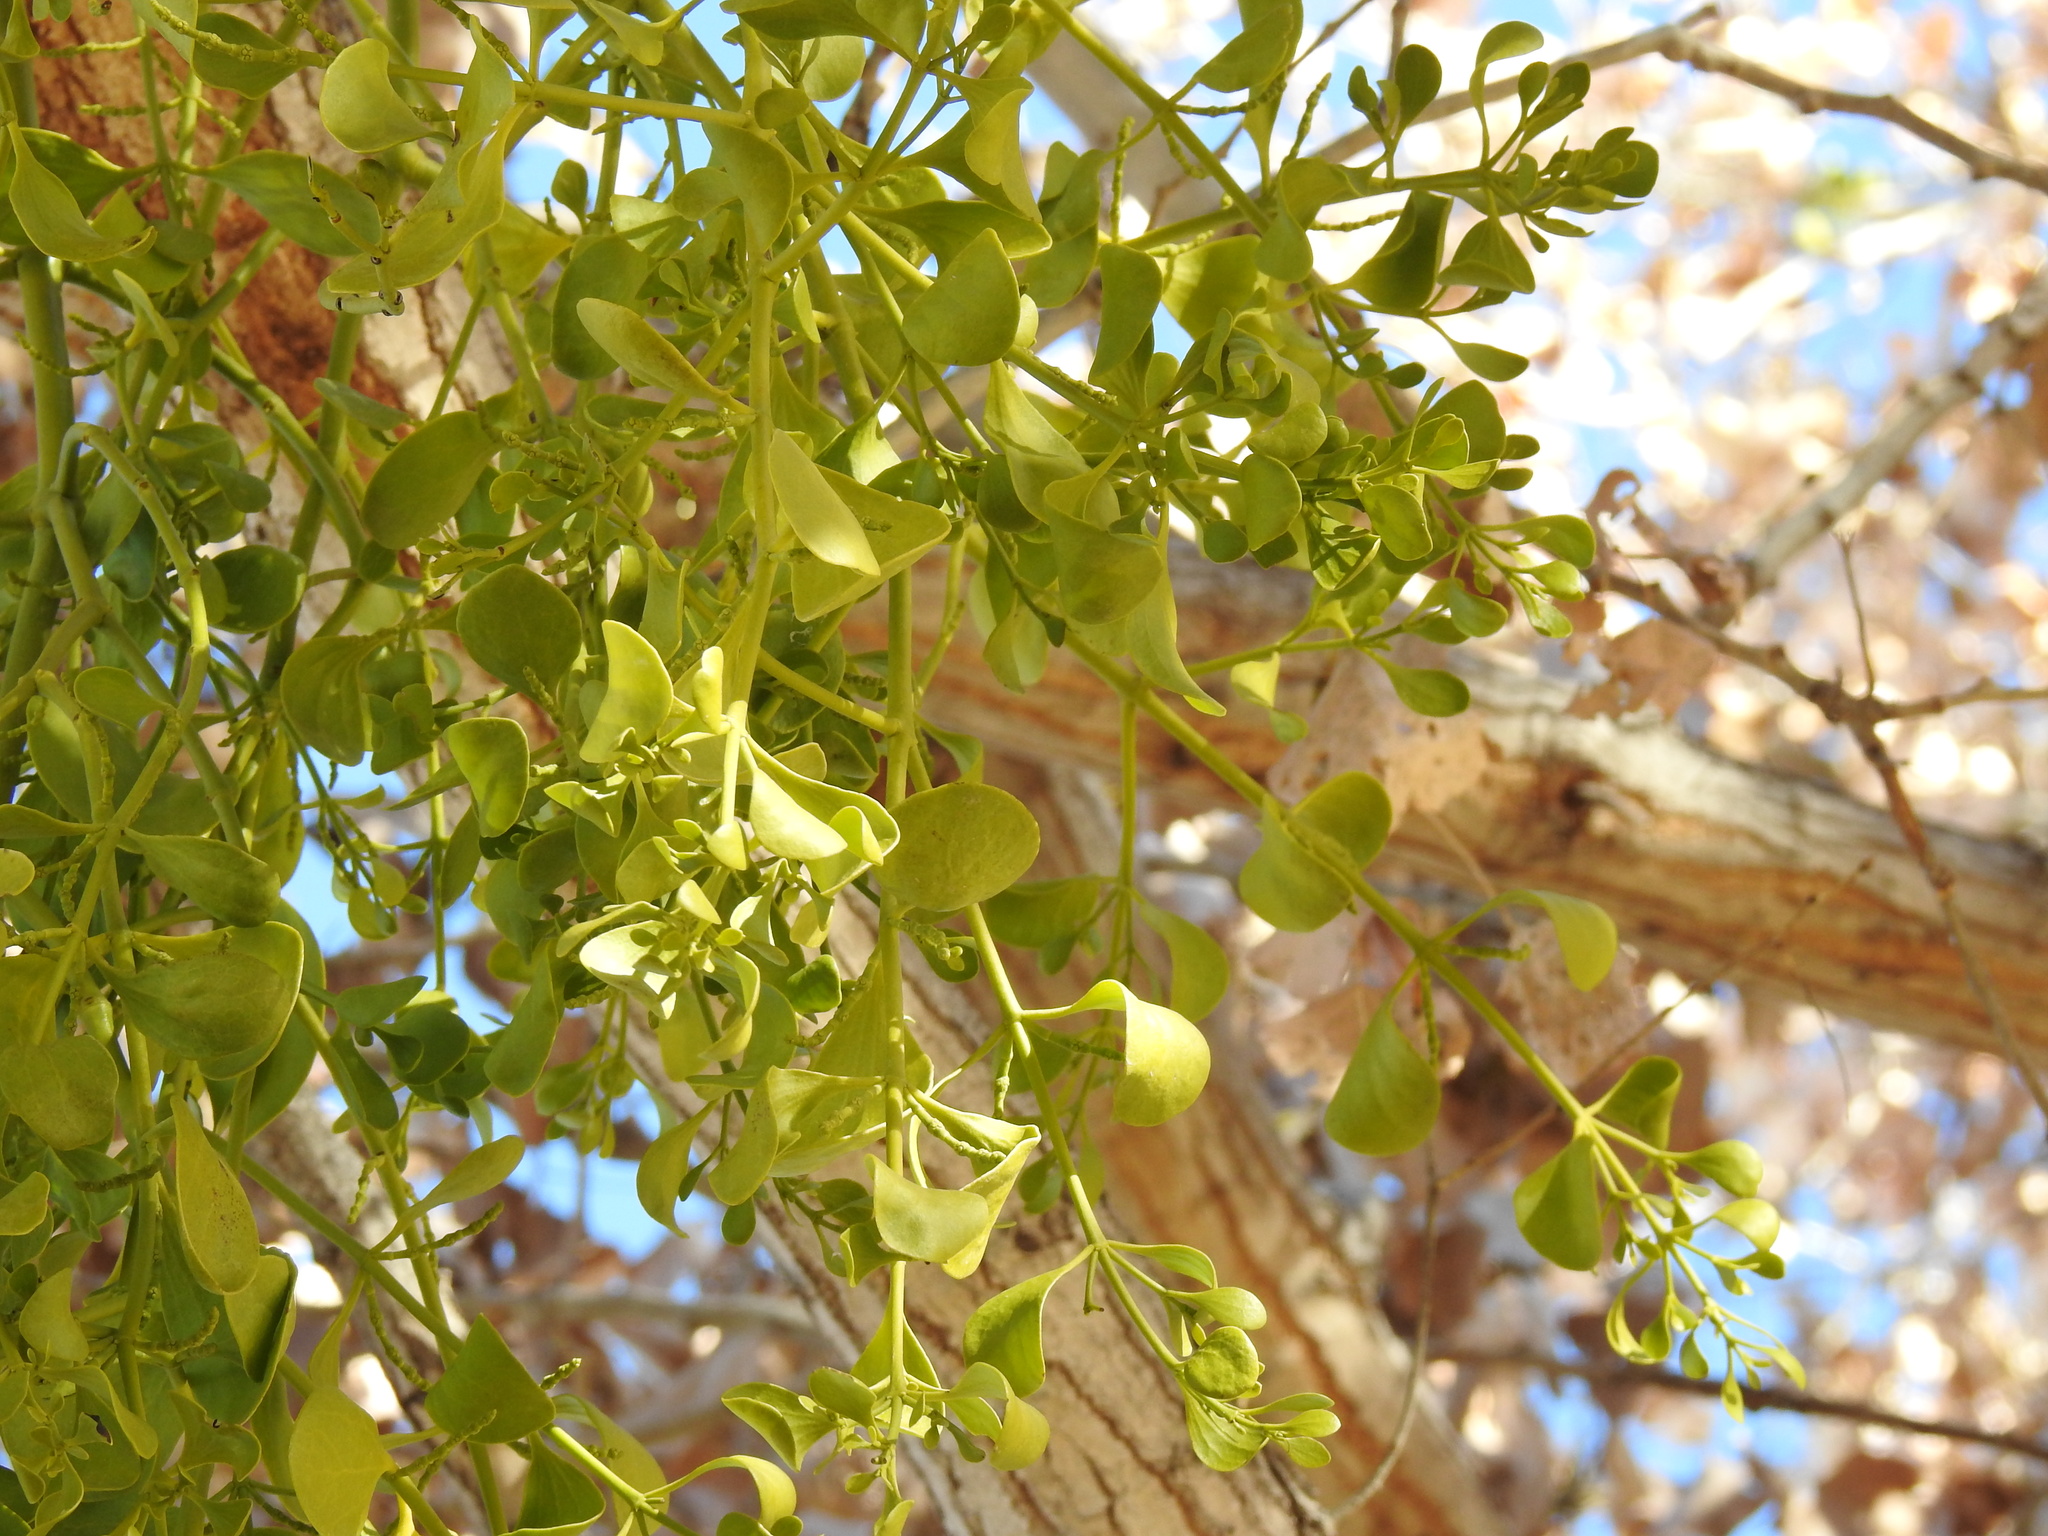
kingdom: Plantae
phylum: Tracheophyta
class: Magnoliopsida
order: Santalales
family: Viscaceae
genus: Phoradendron
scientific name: Phoradendron
